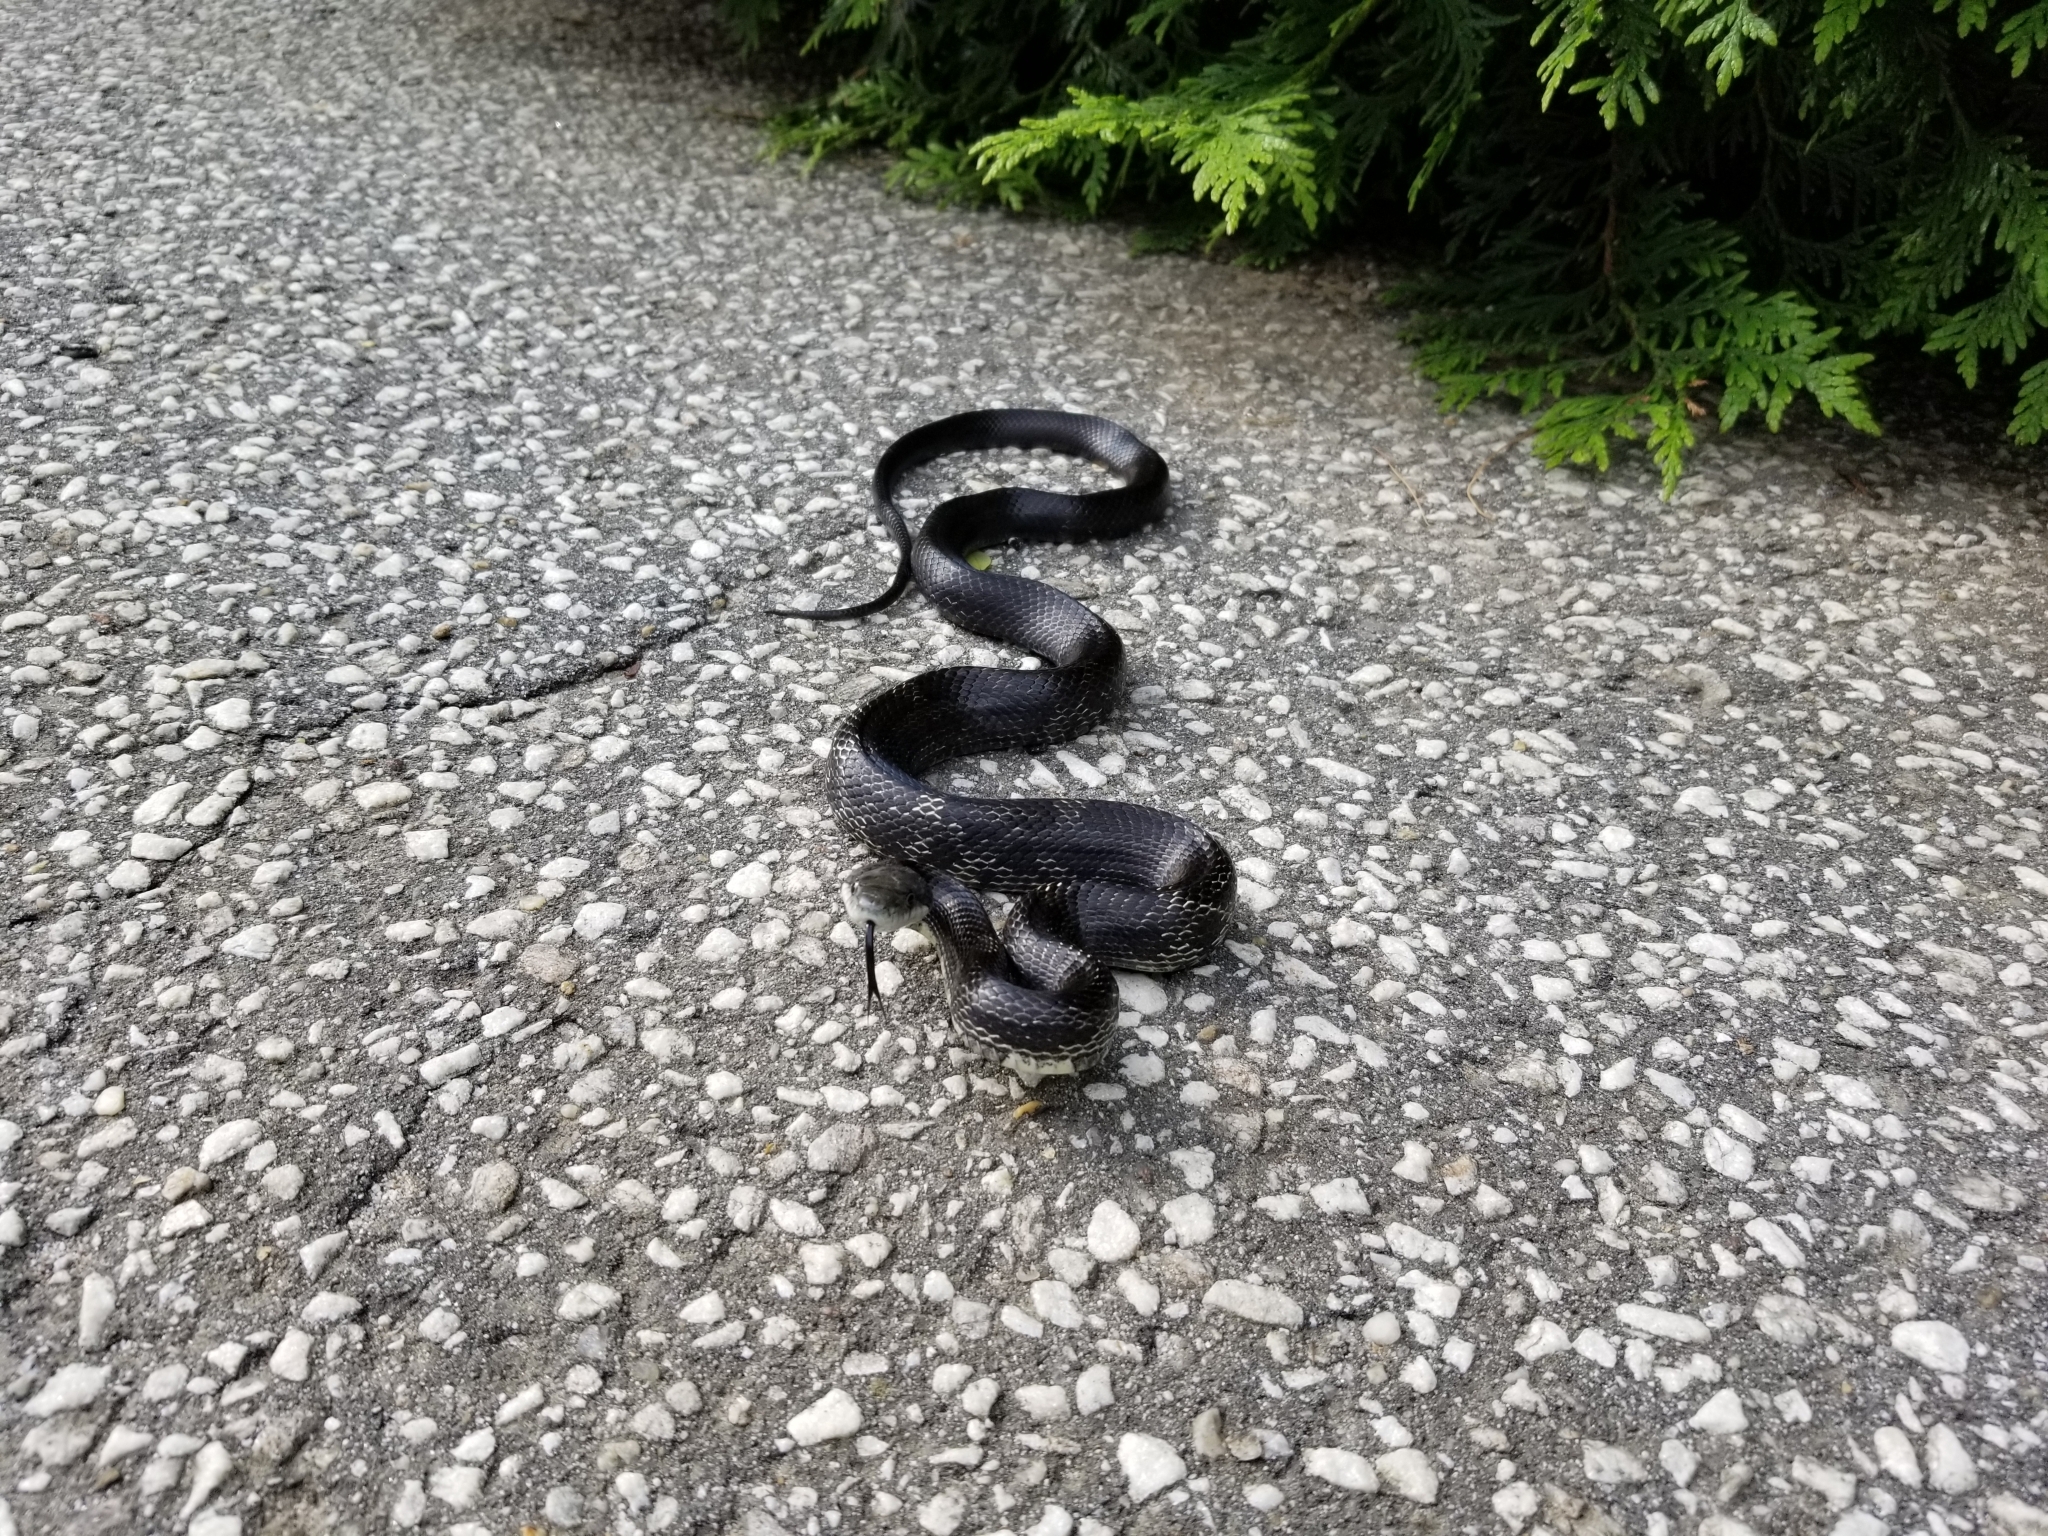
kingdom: Animalia
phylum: Chordata
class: Squamata
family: Colubridae
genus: Pantherophis
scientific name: Pantherophis
